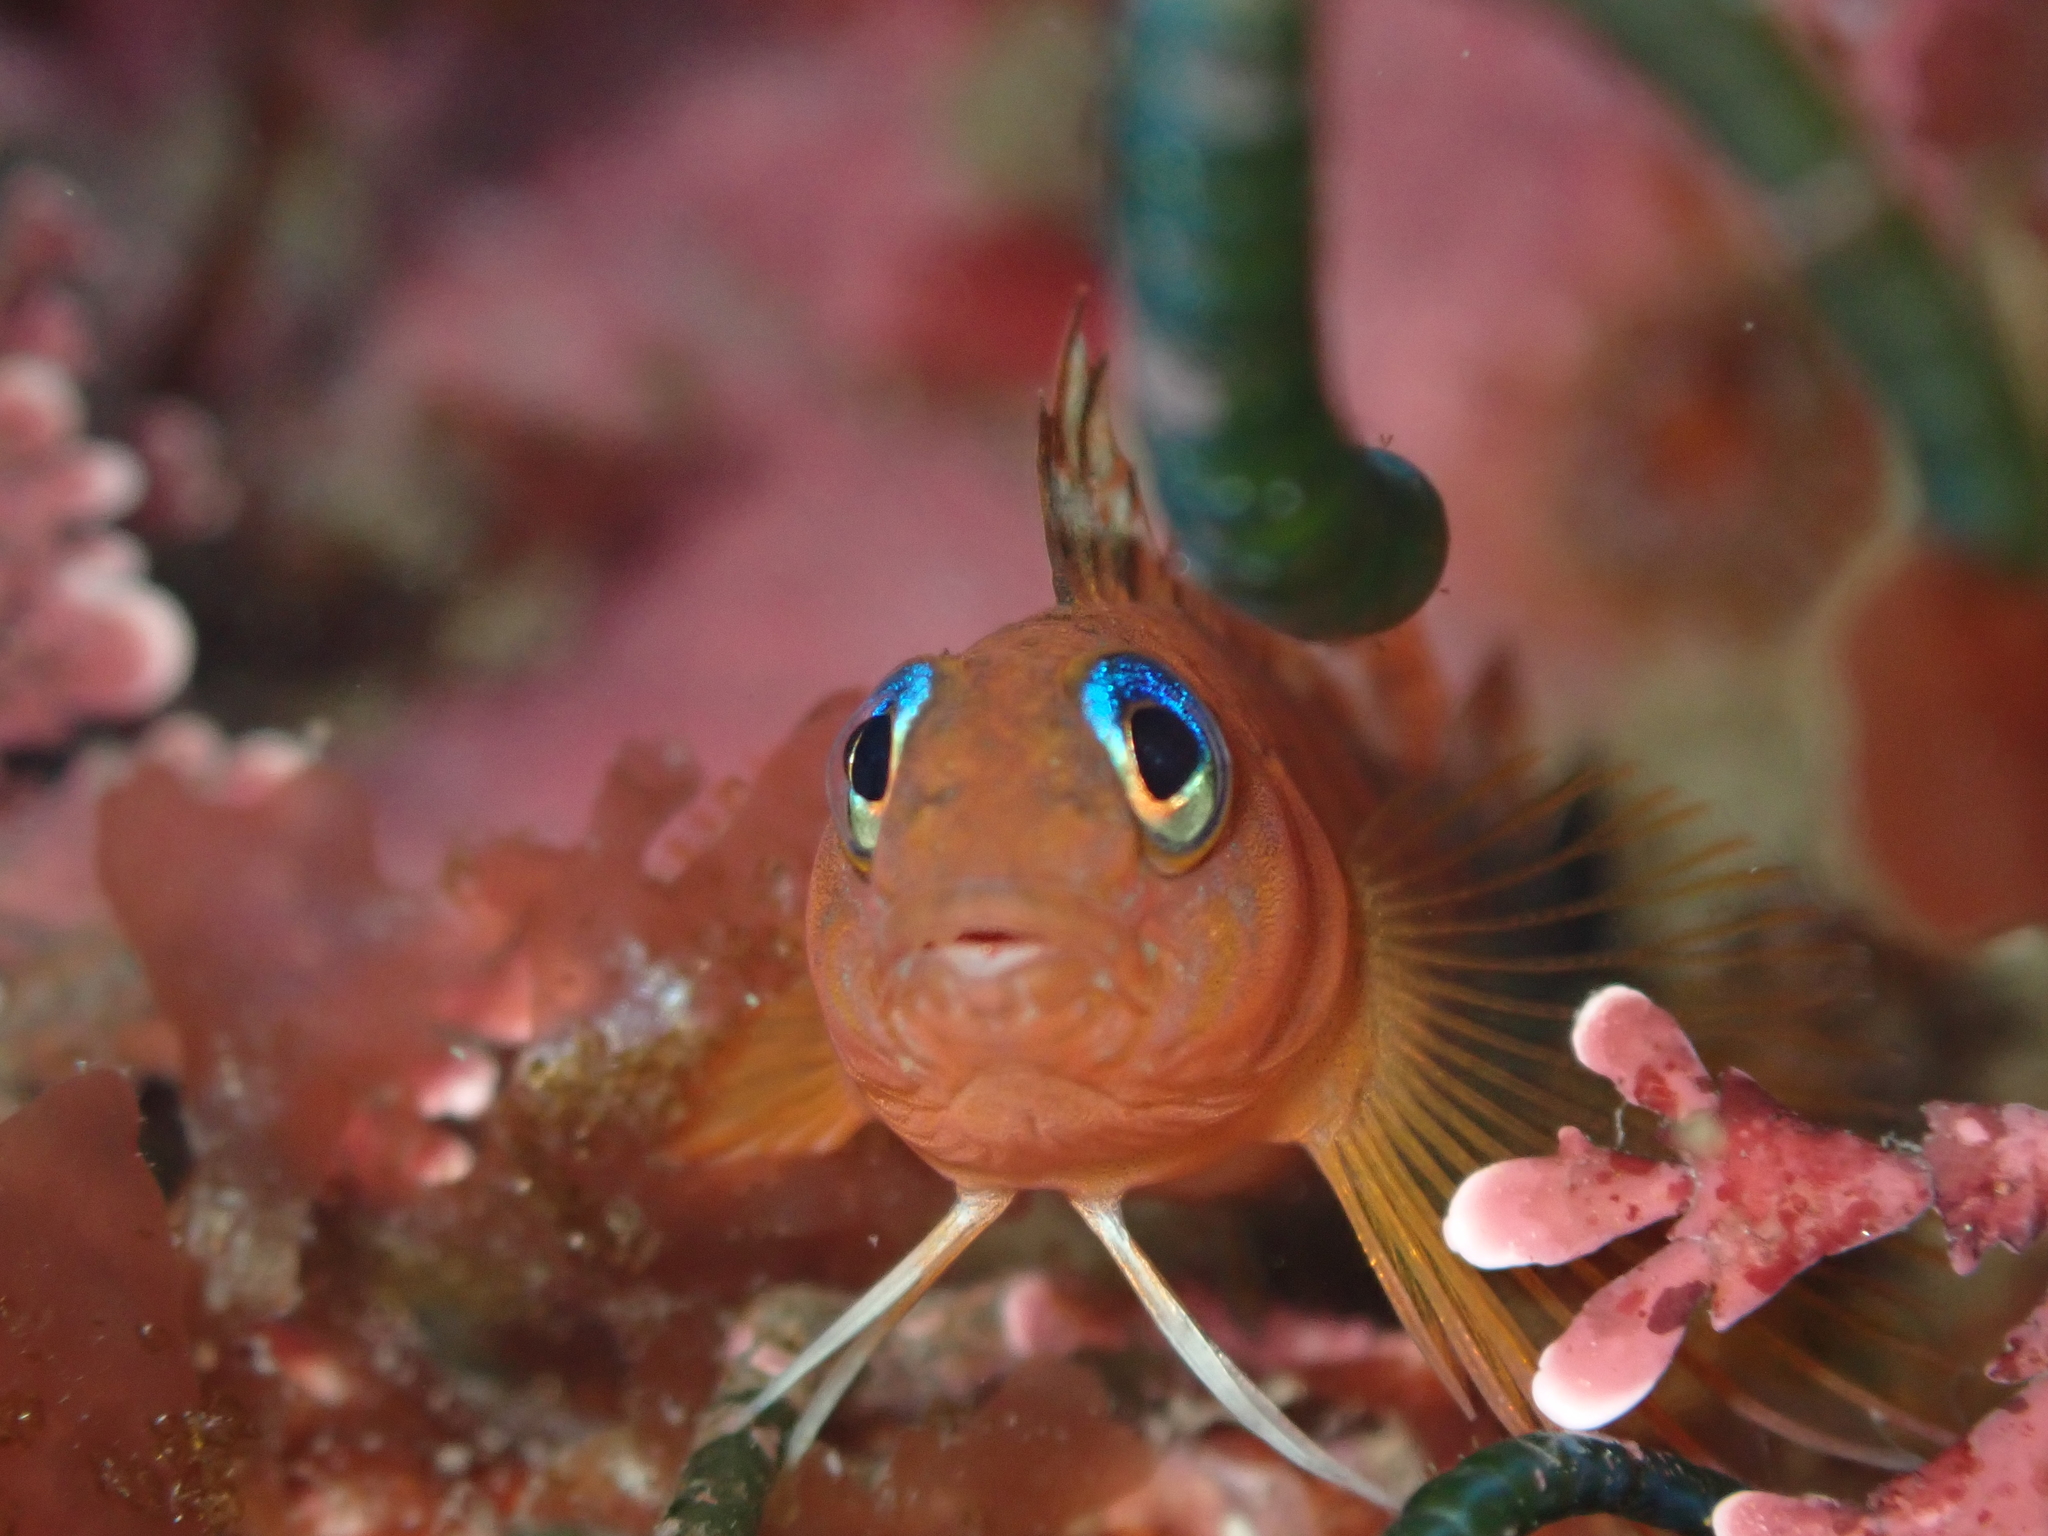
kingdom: Animalia
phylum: Chordata
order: Perciformes
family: Tripterygiidae
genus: Notoclinops
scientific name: Notoclinops segmentatus
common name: Blue-eyed triplefin
